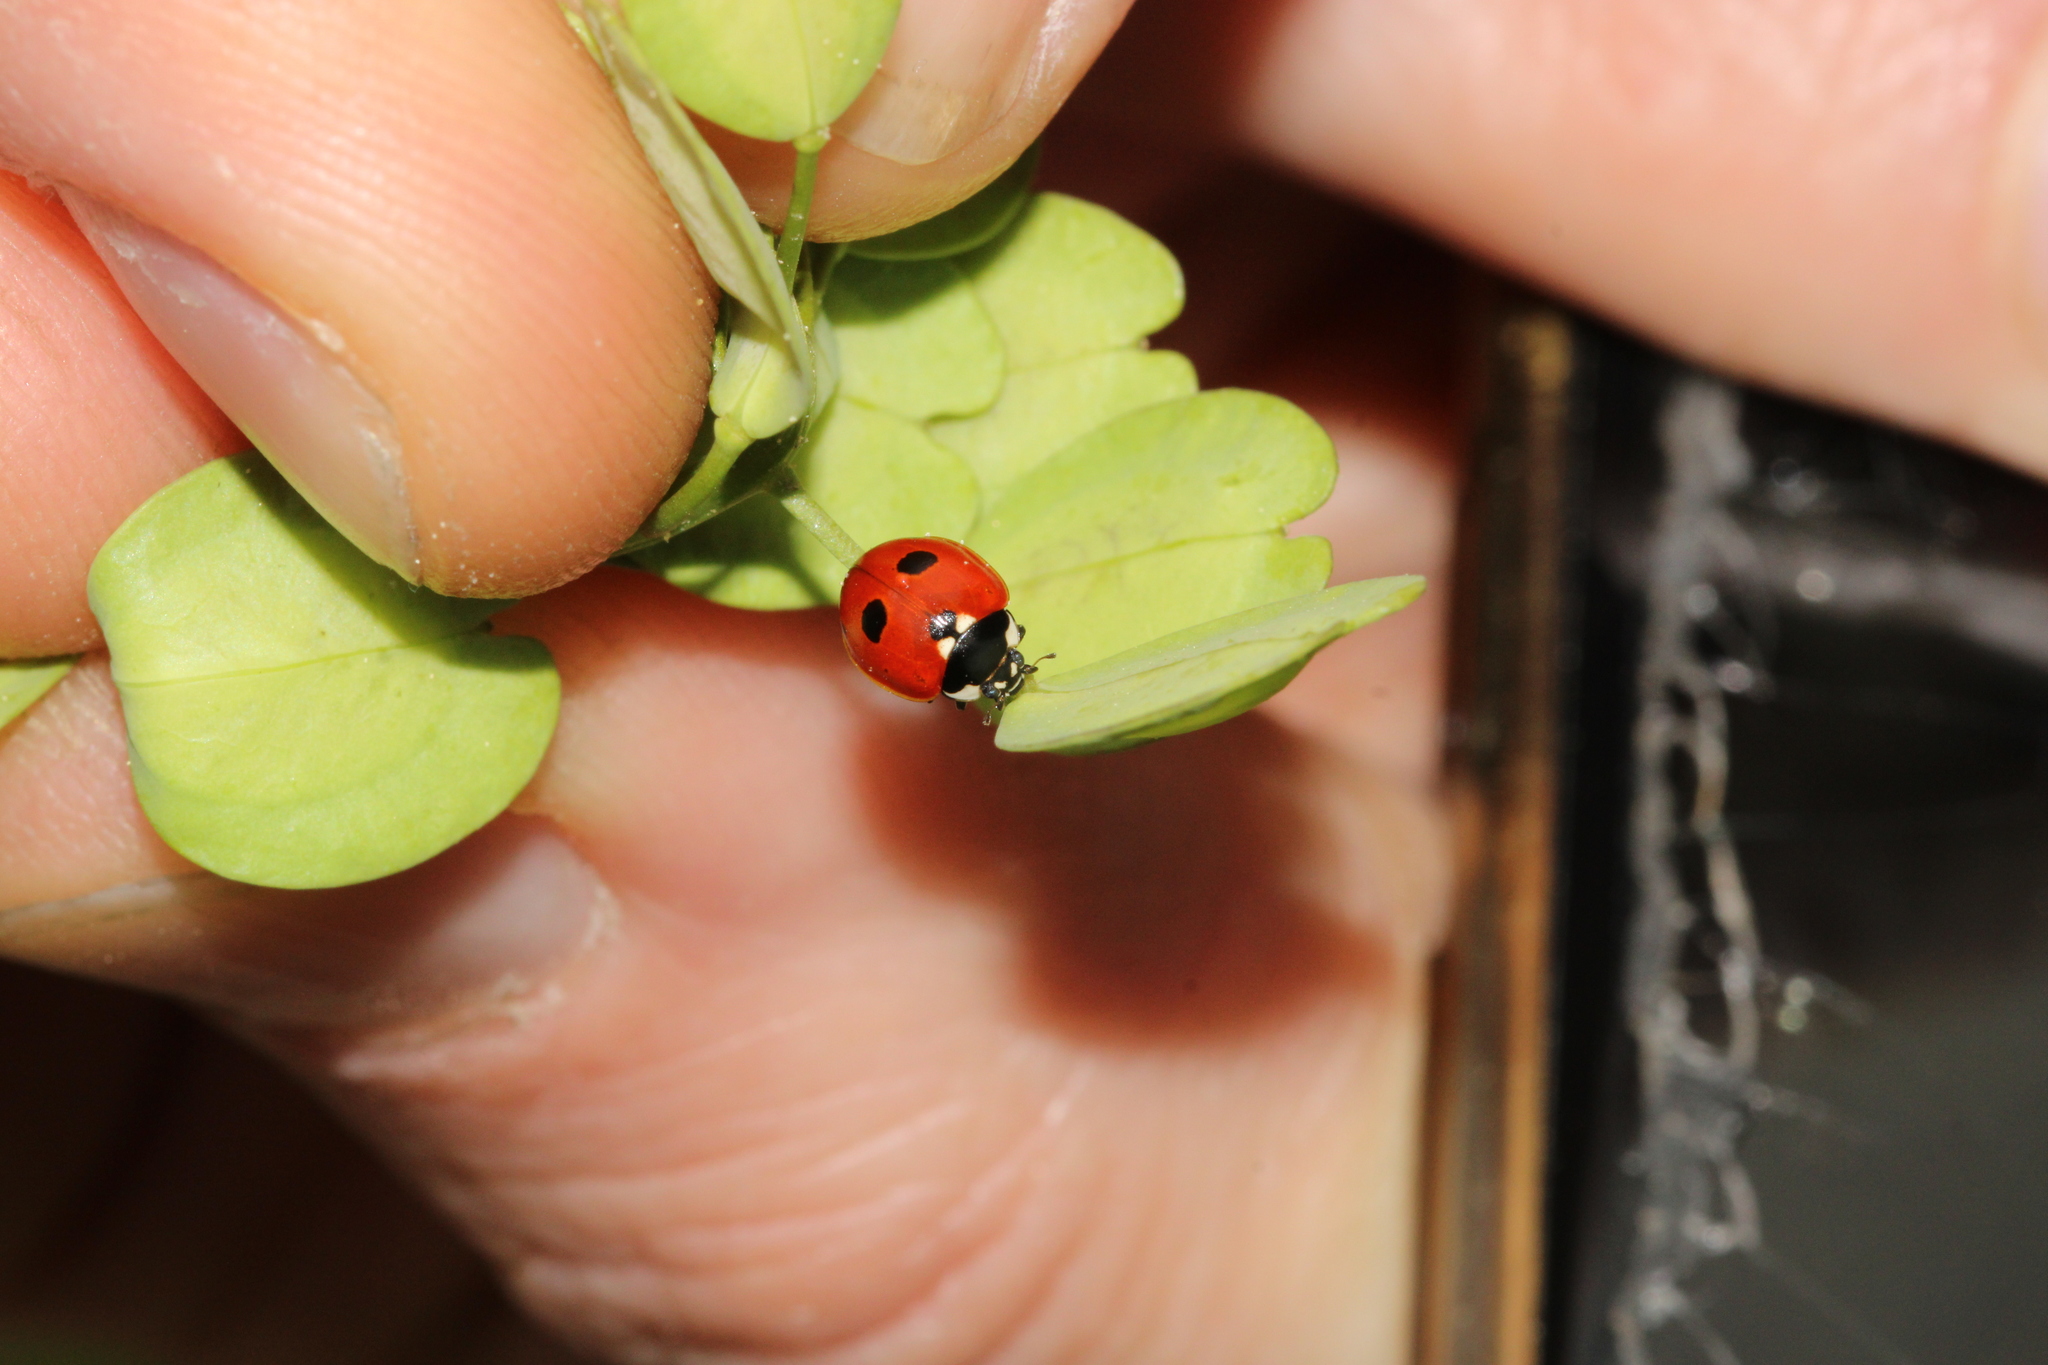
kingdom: Animalia
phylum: Arthropoda
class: Insecta
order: Coleoptera
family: Coccinellidae
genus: Coccinella
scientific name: Coccinella quinquepunctata
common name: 5-spot ladybird
